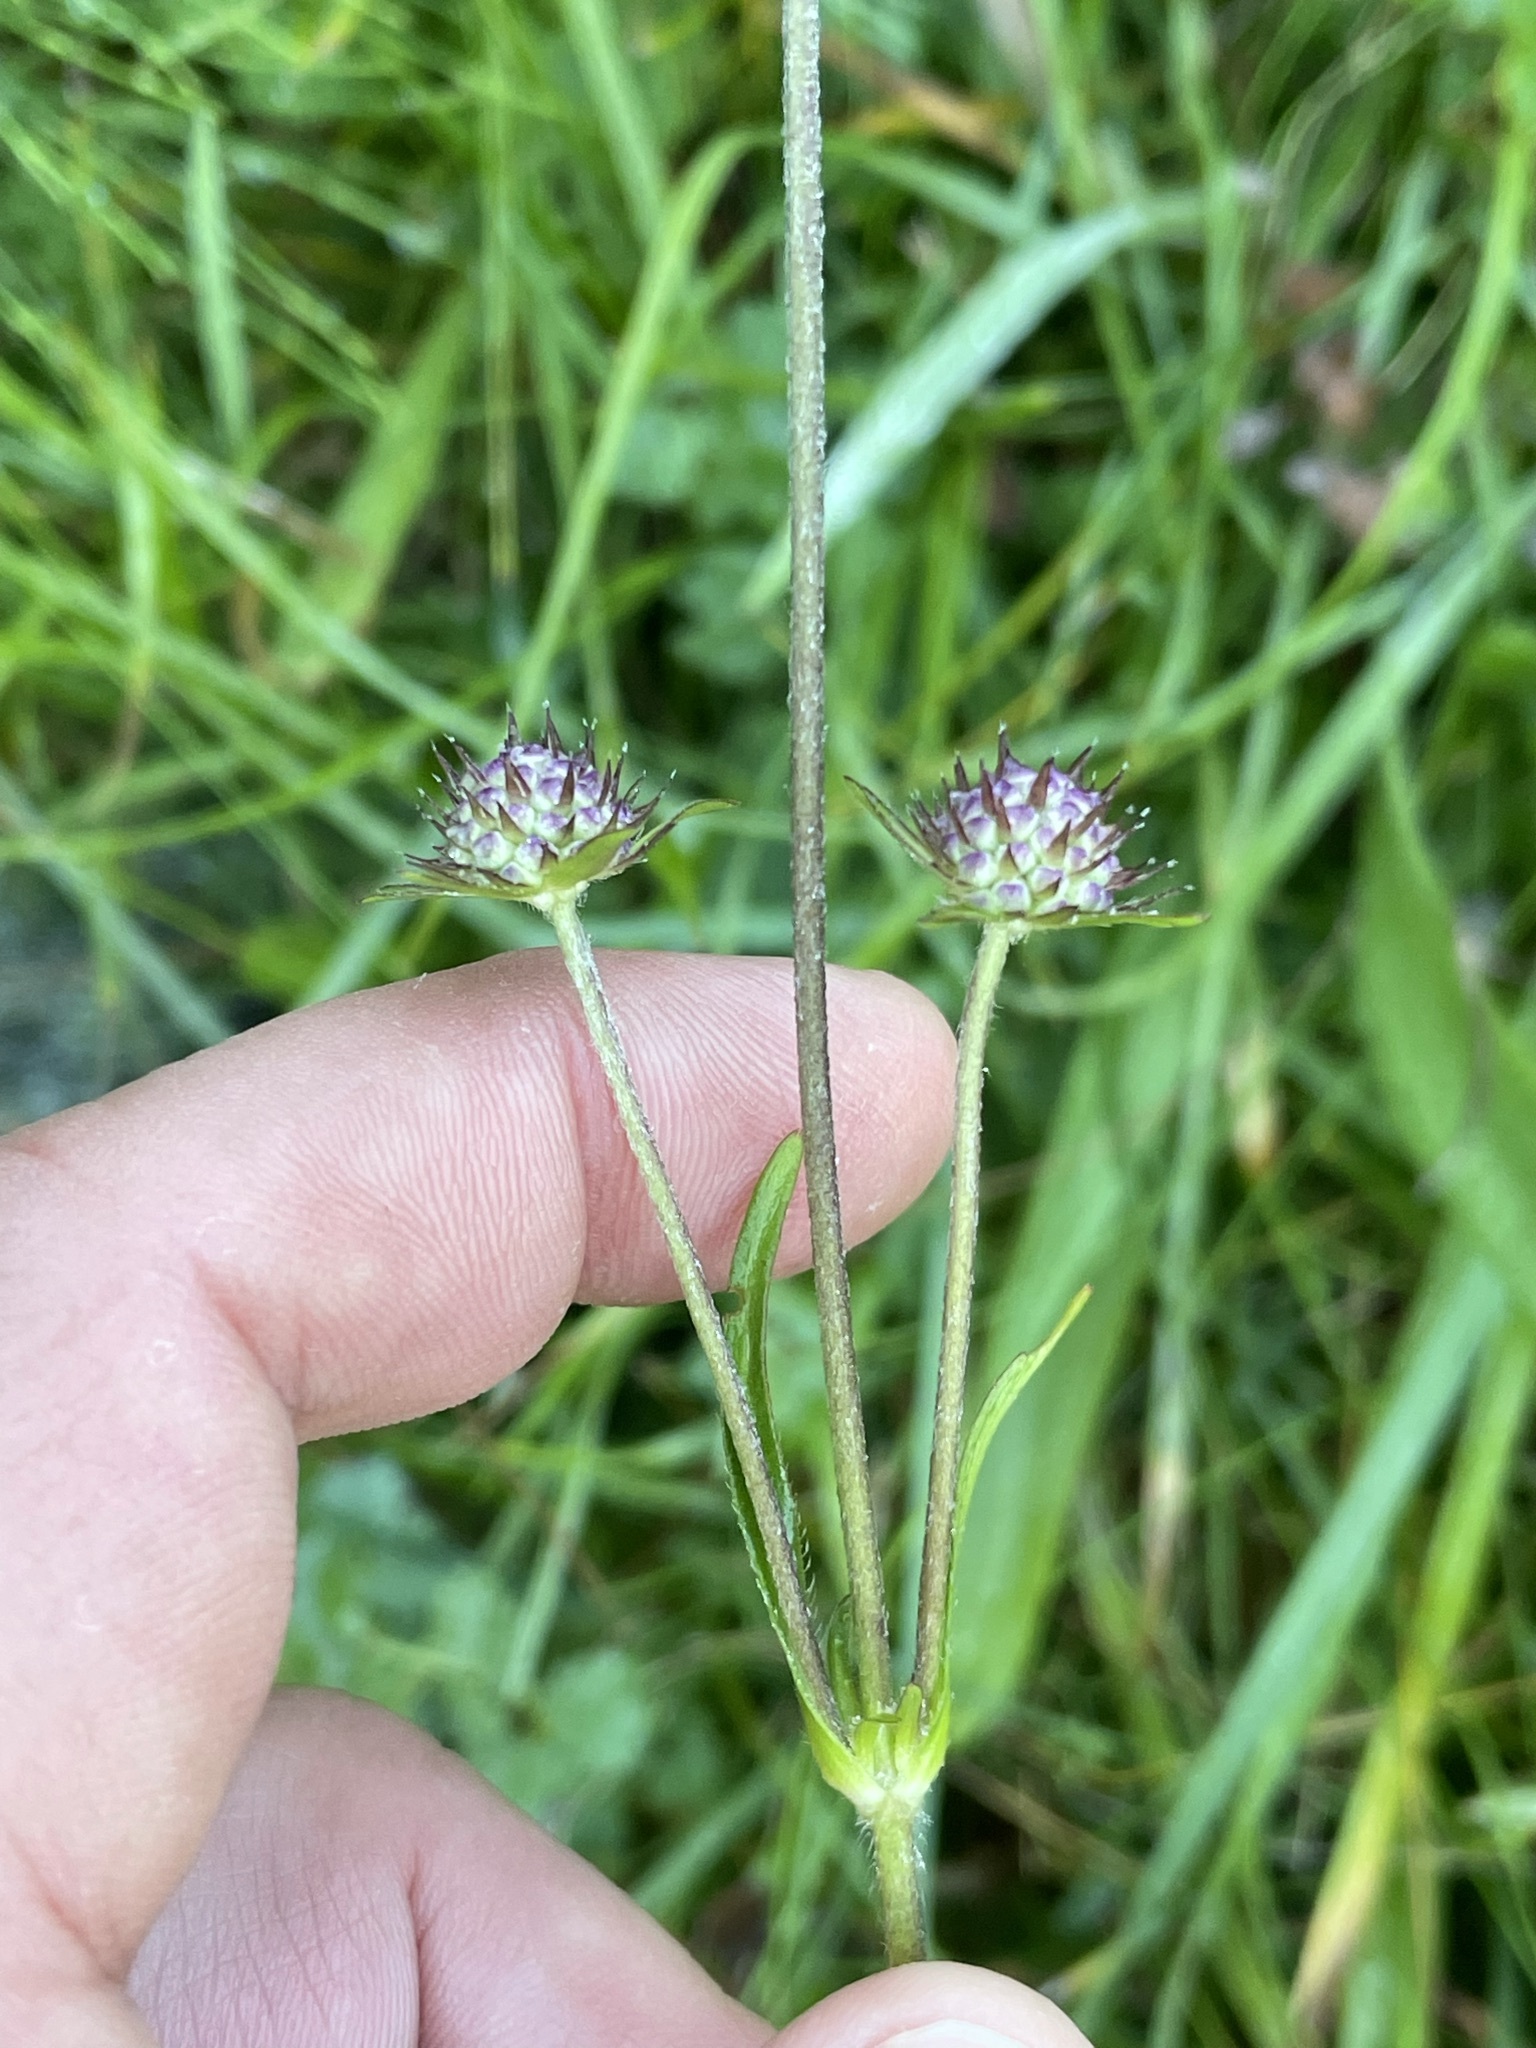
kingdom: Plantae
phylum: Tracheophyta
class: Magnoliopsida
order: Dipsacales
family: Caprifoliaceae
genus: Succisa
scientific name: Succisa pratensis
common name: Devil's-bit
